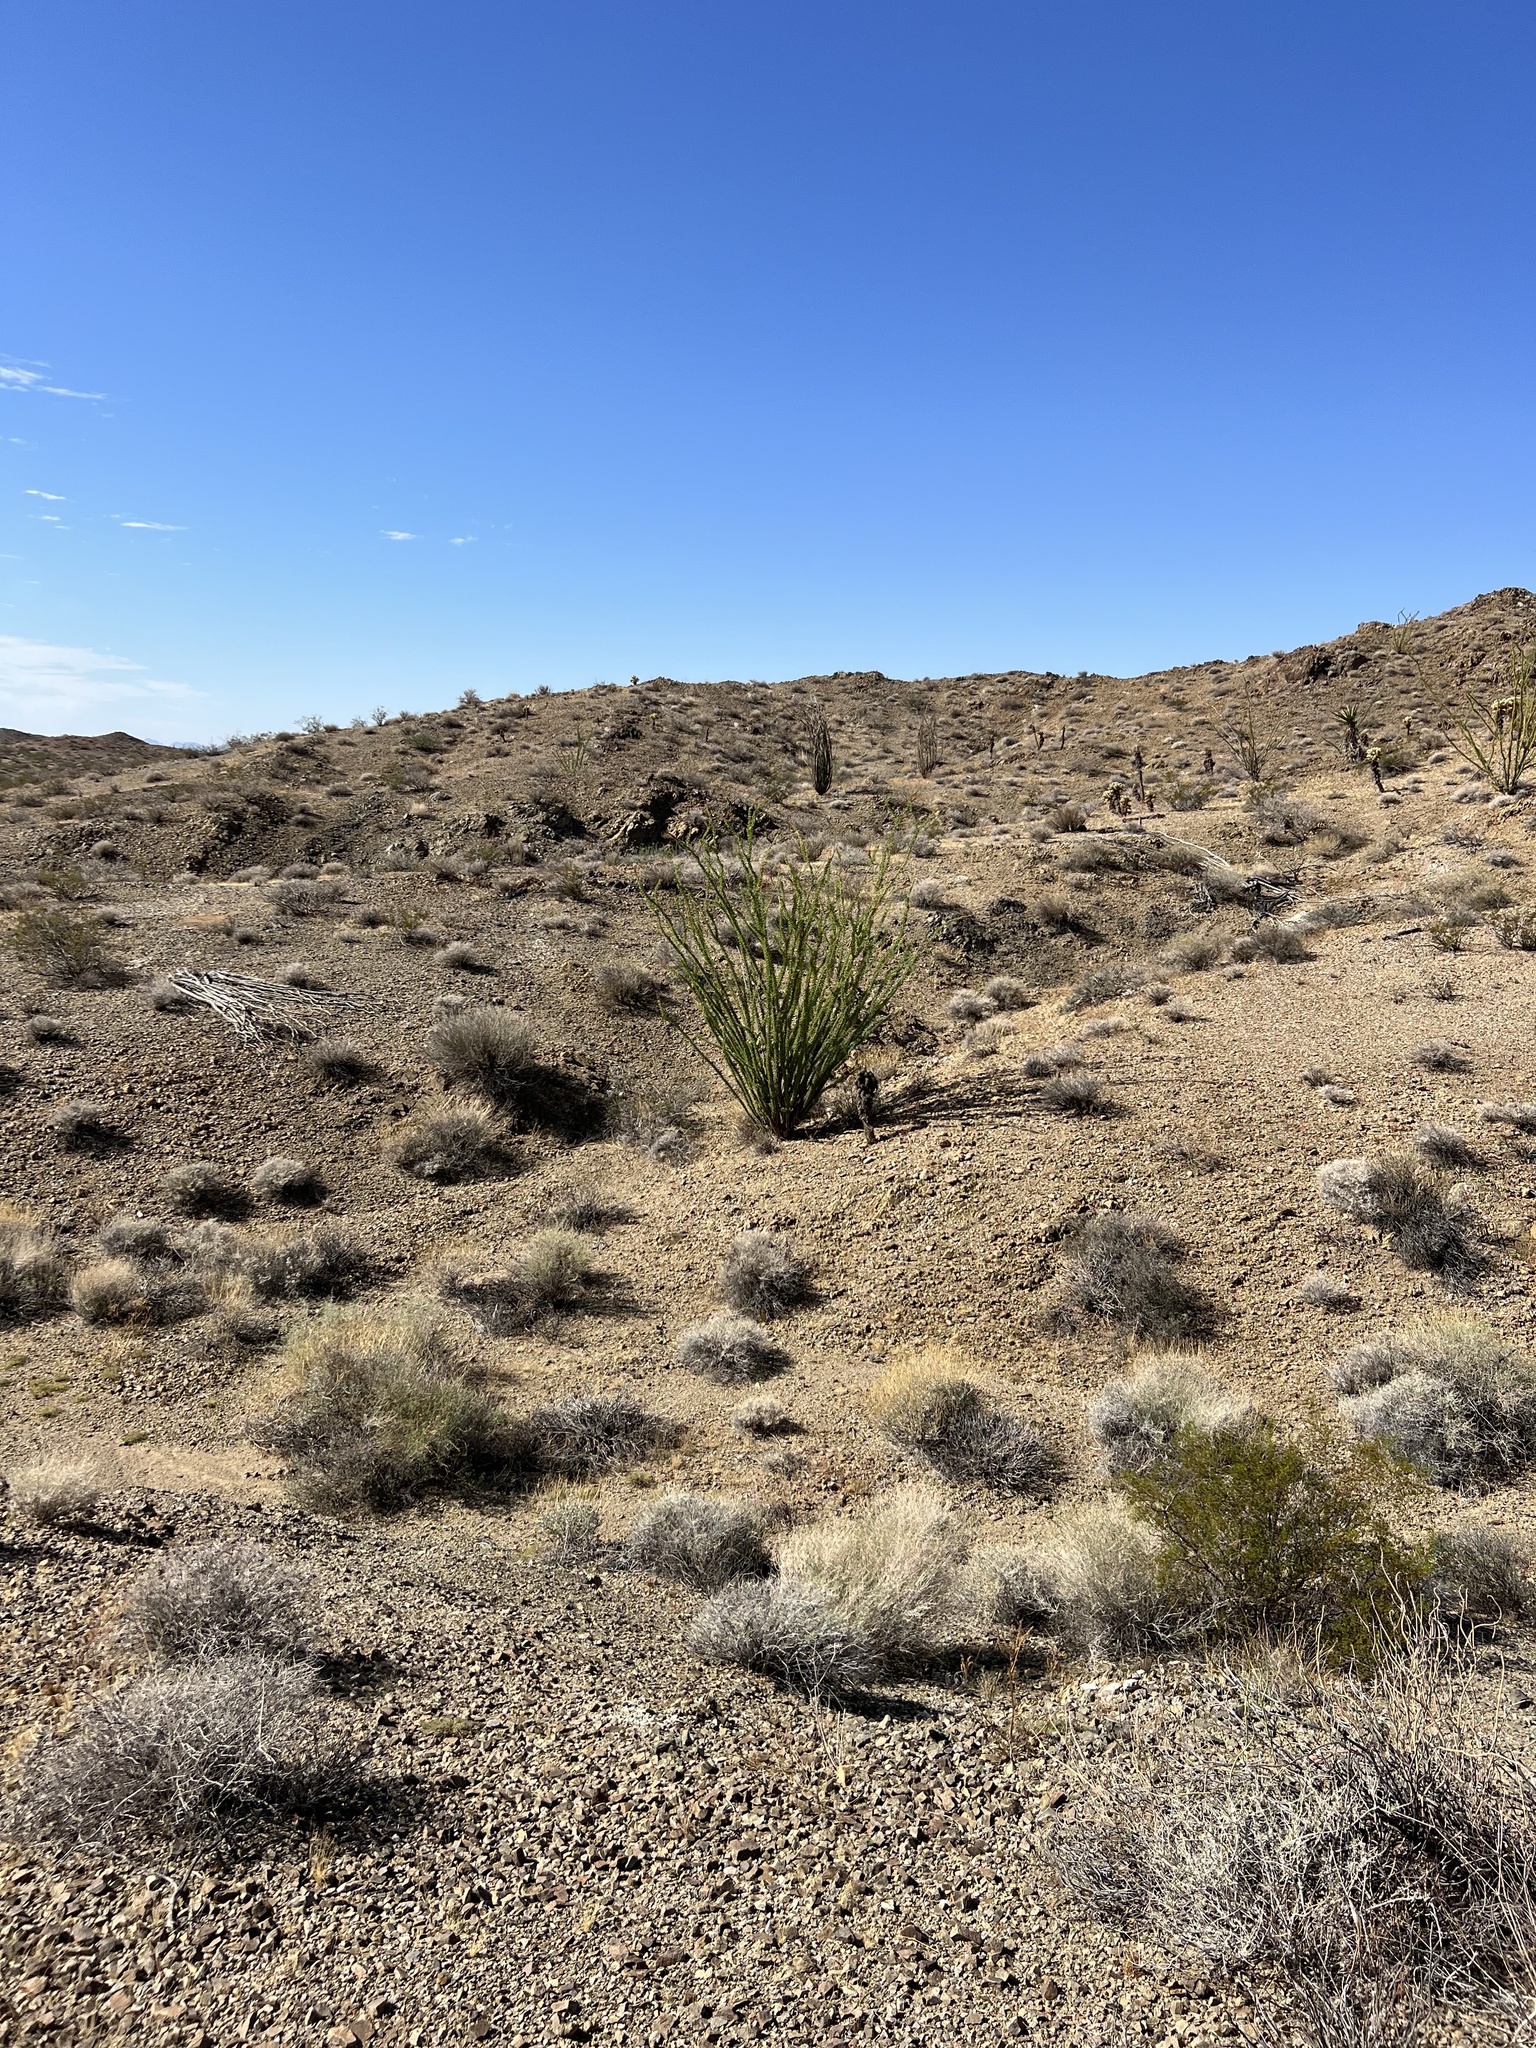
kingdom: Plantae
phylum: Tracheophyta
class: Magnoliopsida
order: Ericales
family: Fouquieriaceae
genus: Fouquieria
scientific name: Fouquieria splendens
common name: Vine-cactus
